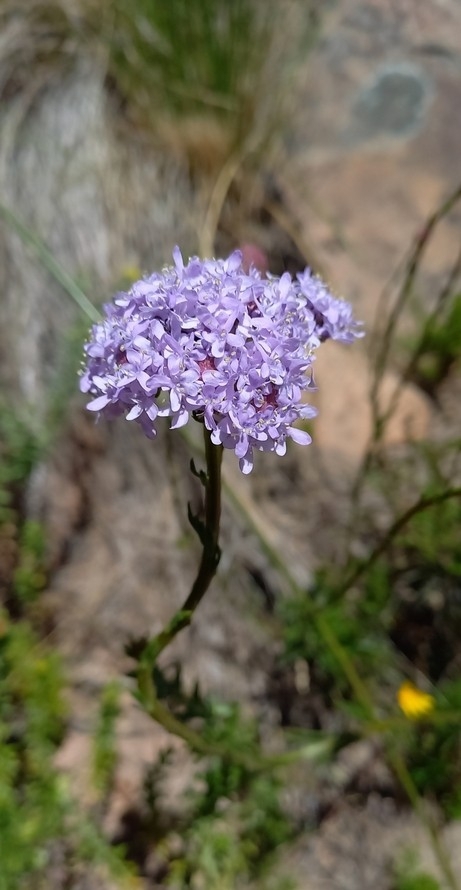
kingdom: Plantae
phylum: Tracheophyta
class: Magnoliopsida
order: Lamiales
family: Scrophulariaceae
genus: Pseudoselago
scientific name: Pseudoselago spuria
